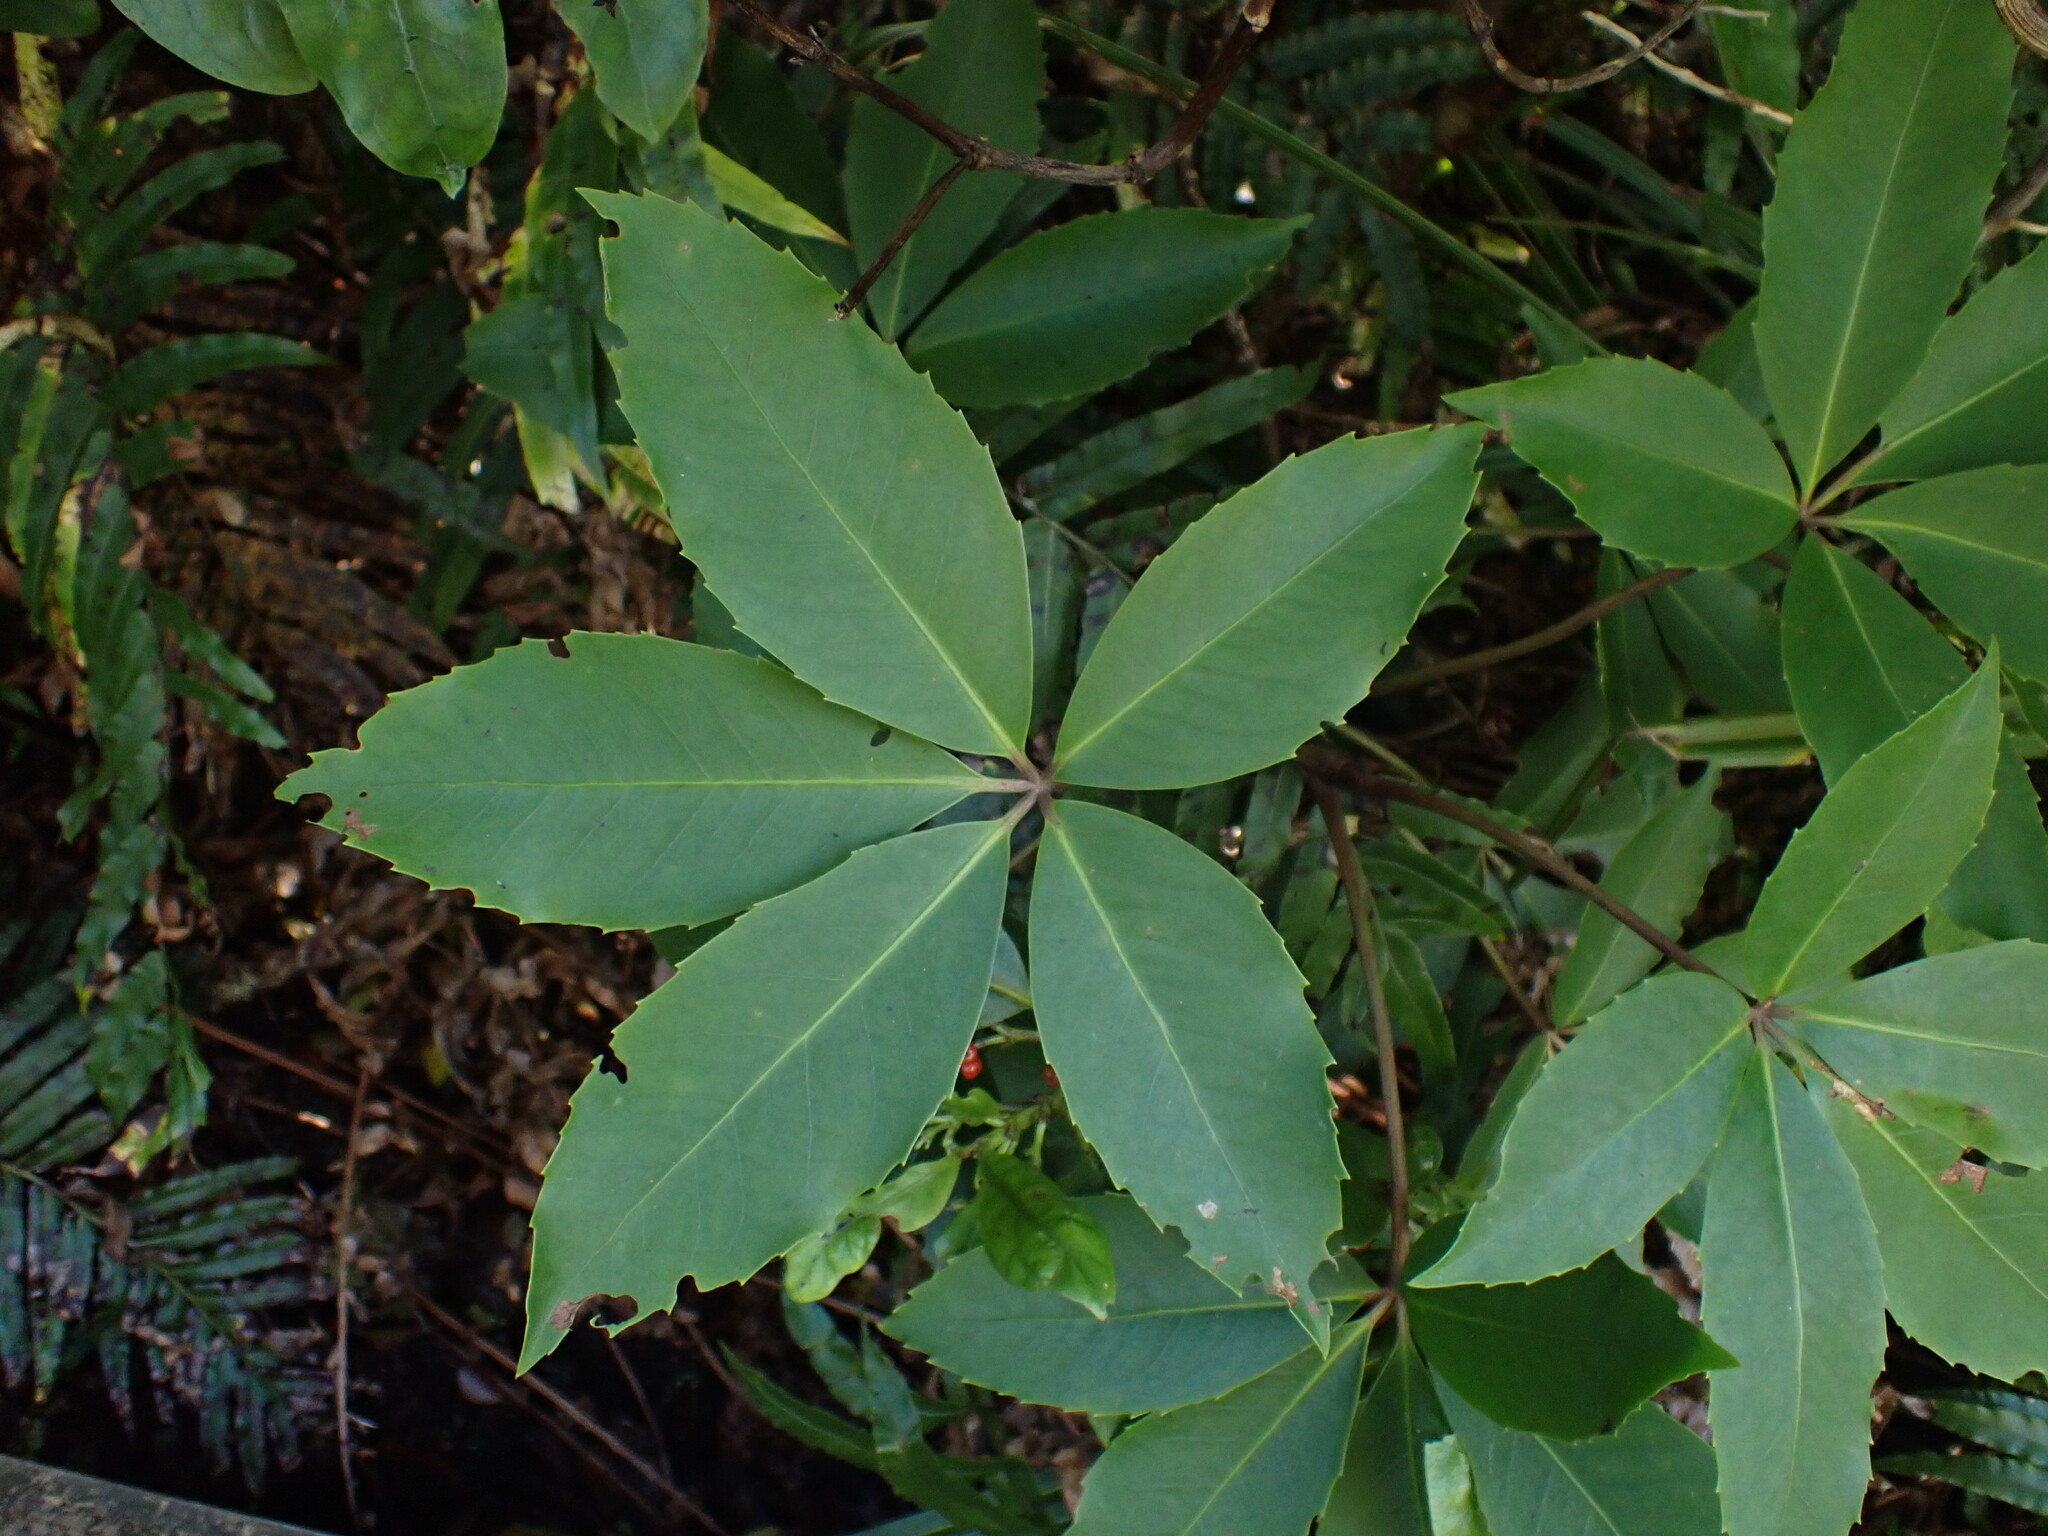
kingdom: Plantae
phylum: Tracheophyta
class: Magnoliopsida
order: Apiales
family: Araliaceae
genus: Neopanax
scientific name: Neopanax arboreus
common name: Five-fingers
